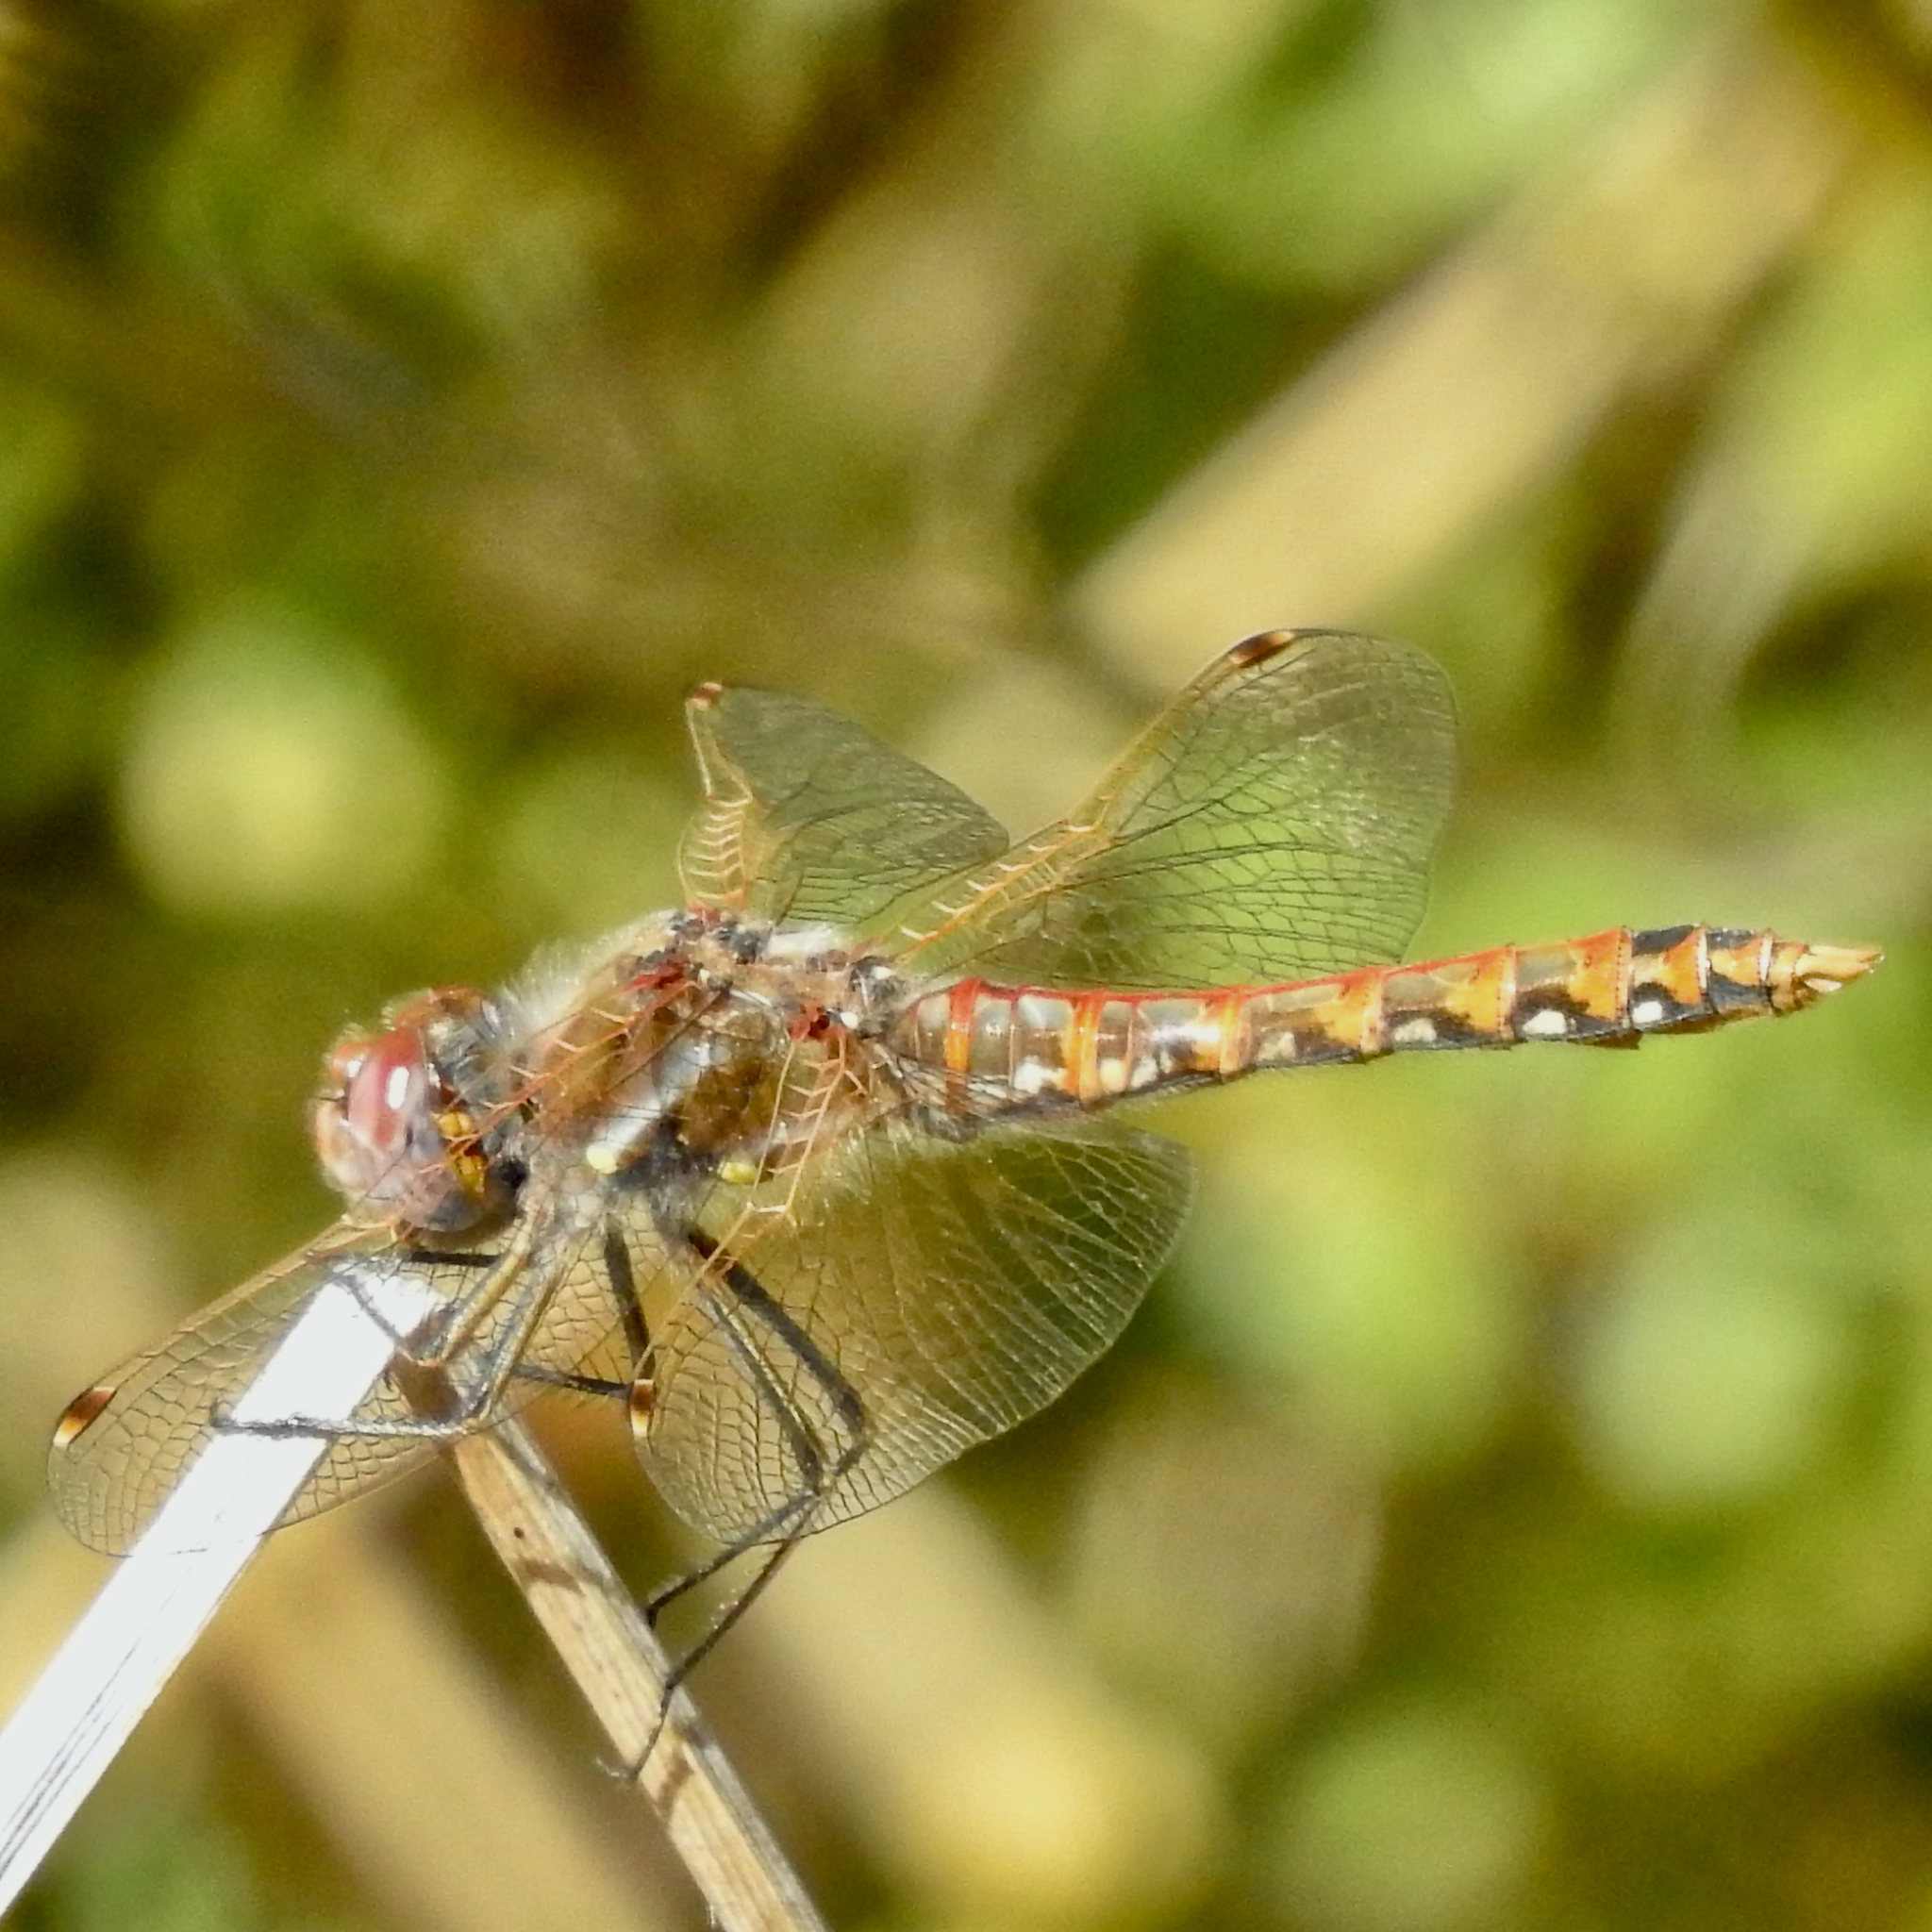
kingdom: Animalia
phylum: Arthropoda
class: Insecta
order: Odonata
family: Libellulidae
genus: Sympetrum
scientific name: Sympetrum corruptum
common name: Variegated meadowhawk
